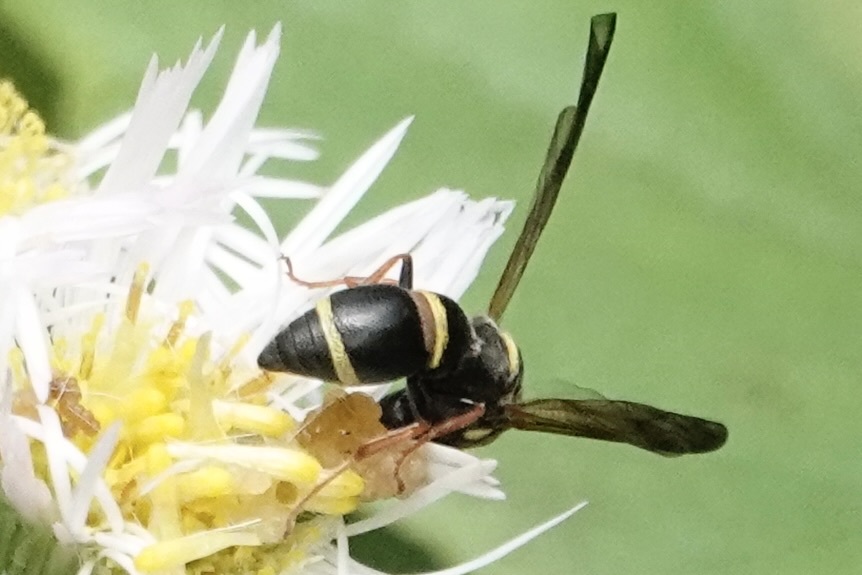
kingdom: Animalia
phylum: Arthropoda
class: Insecta
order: Hymenoptera
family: Eumenidae
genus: Parancistrocerus
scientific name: Parancistrocerus perennis
